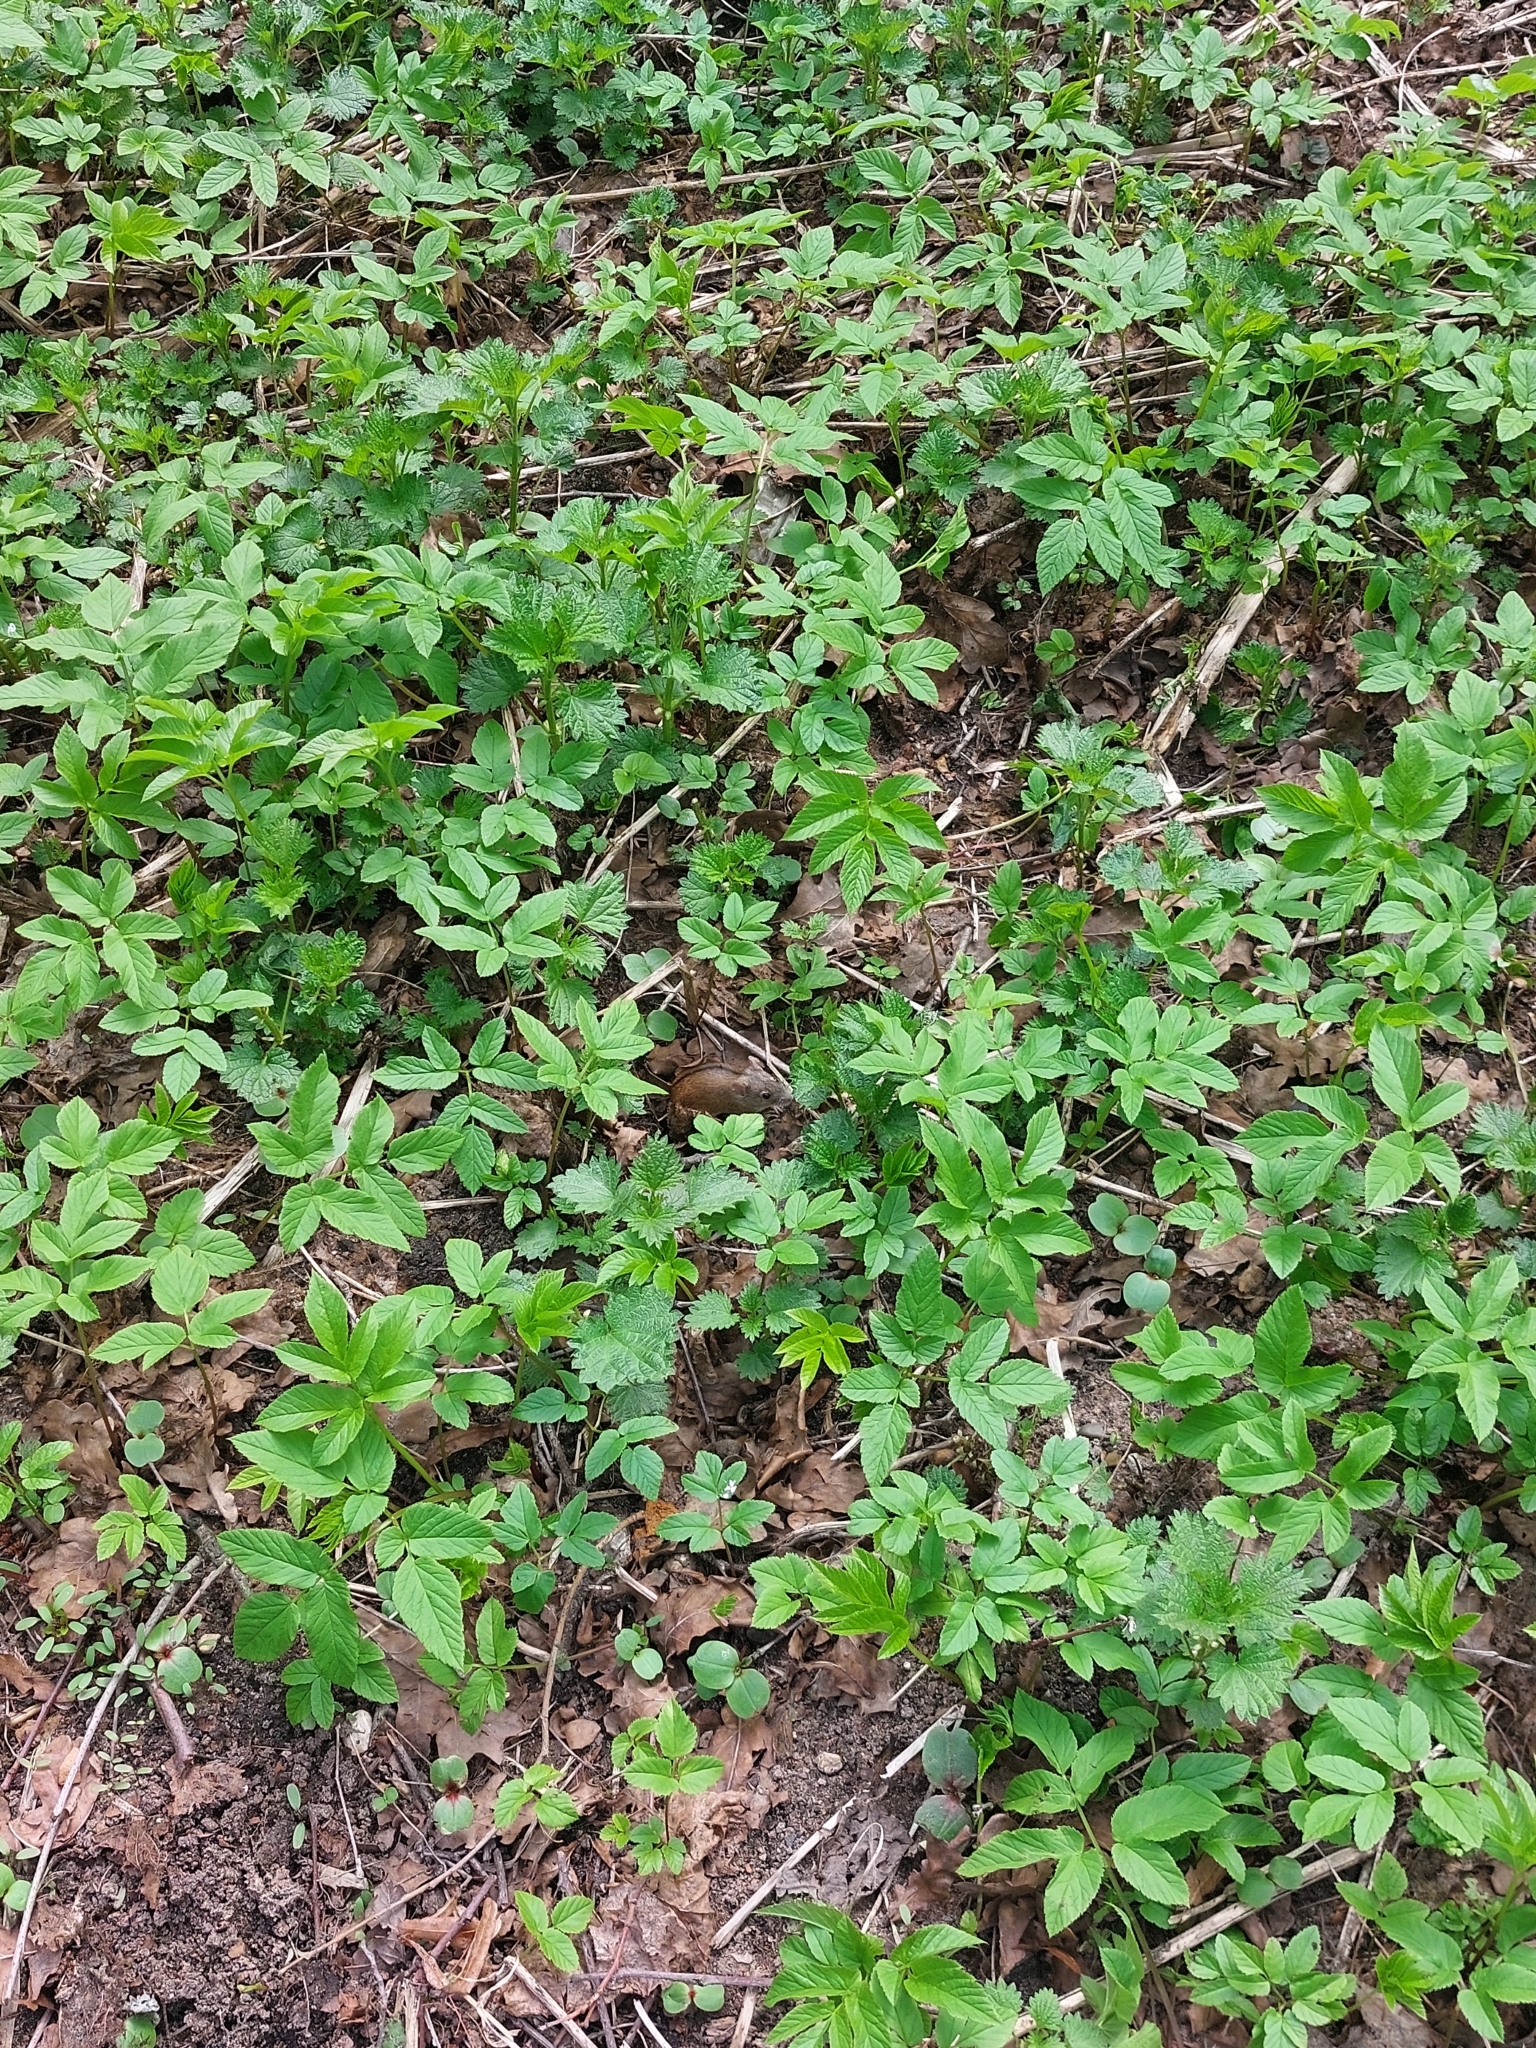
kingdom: Animalia
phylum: Chordata
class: Mammalia
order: Rodentia
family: Muridae
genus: Apodemus
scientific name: Apodemus agrarius
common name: Striped field mouse
